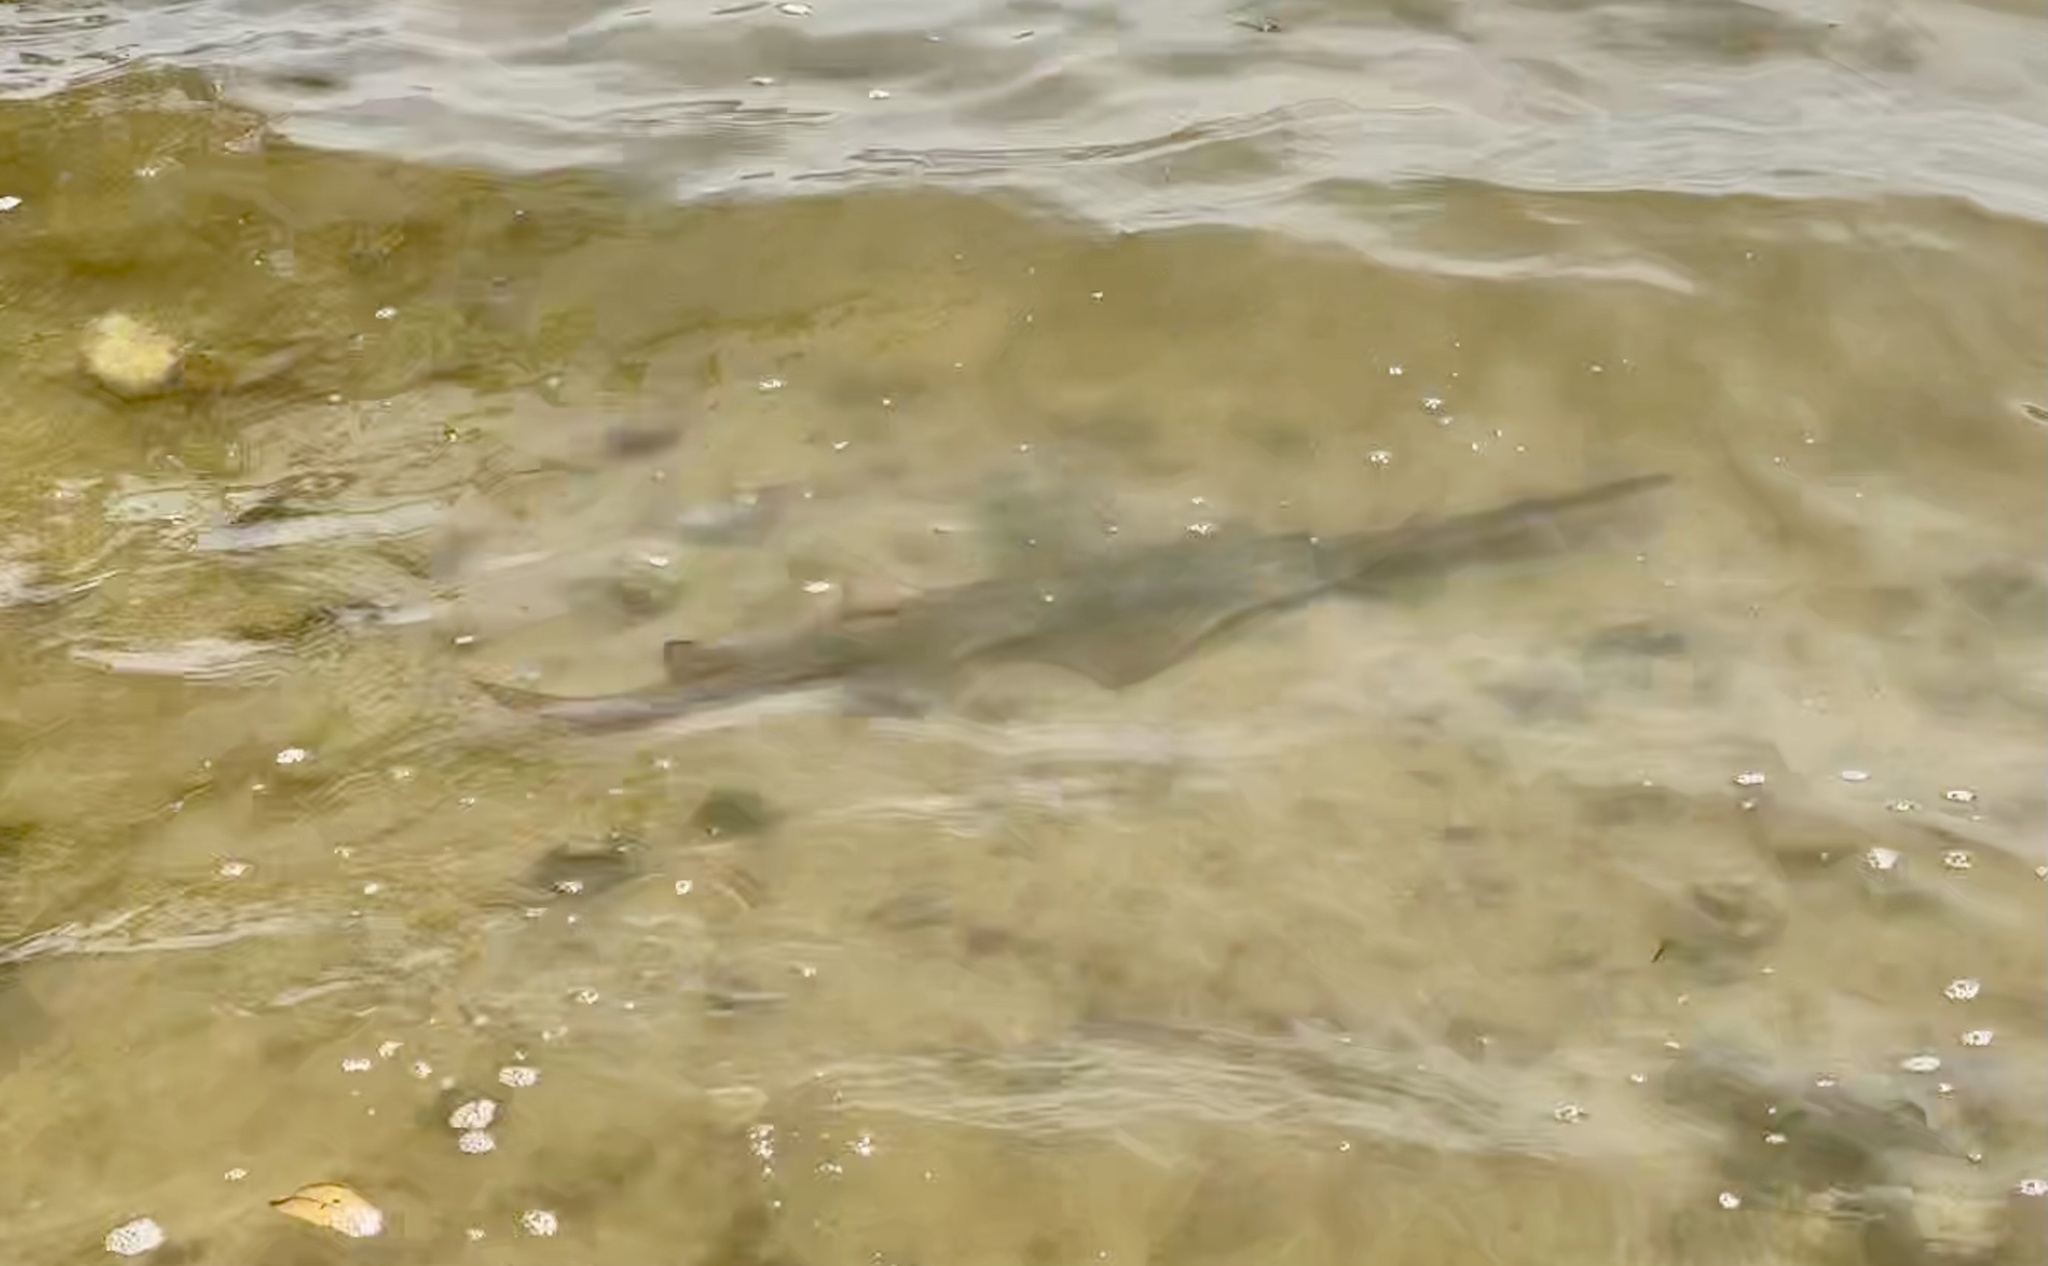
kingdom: Animalia
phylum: Chordata
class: Elasmobranchii
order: Rhinopristiformes
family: Pristidae
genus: Pristis
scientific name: Pristis pectinata
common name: Smalltooth sawfish
